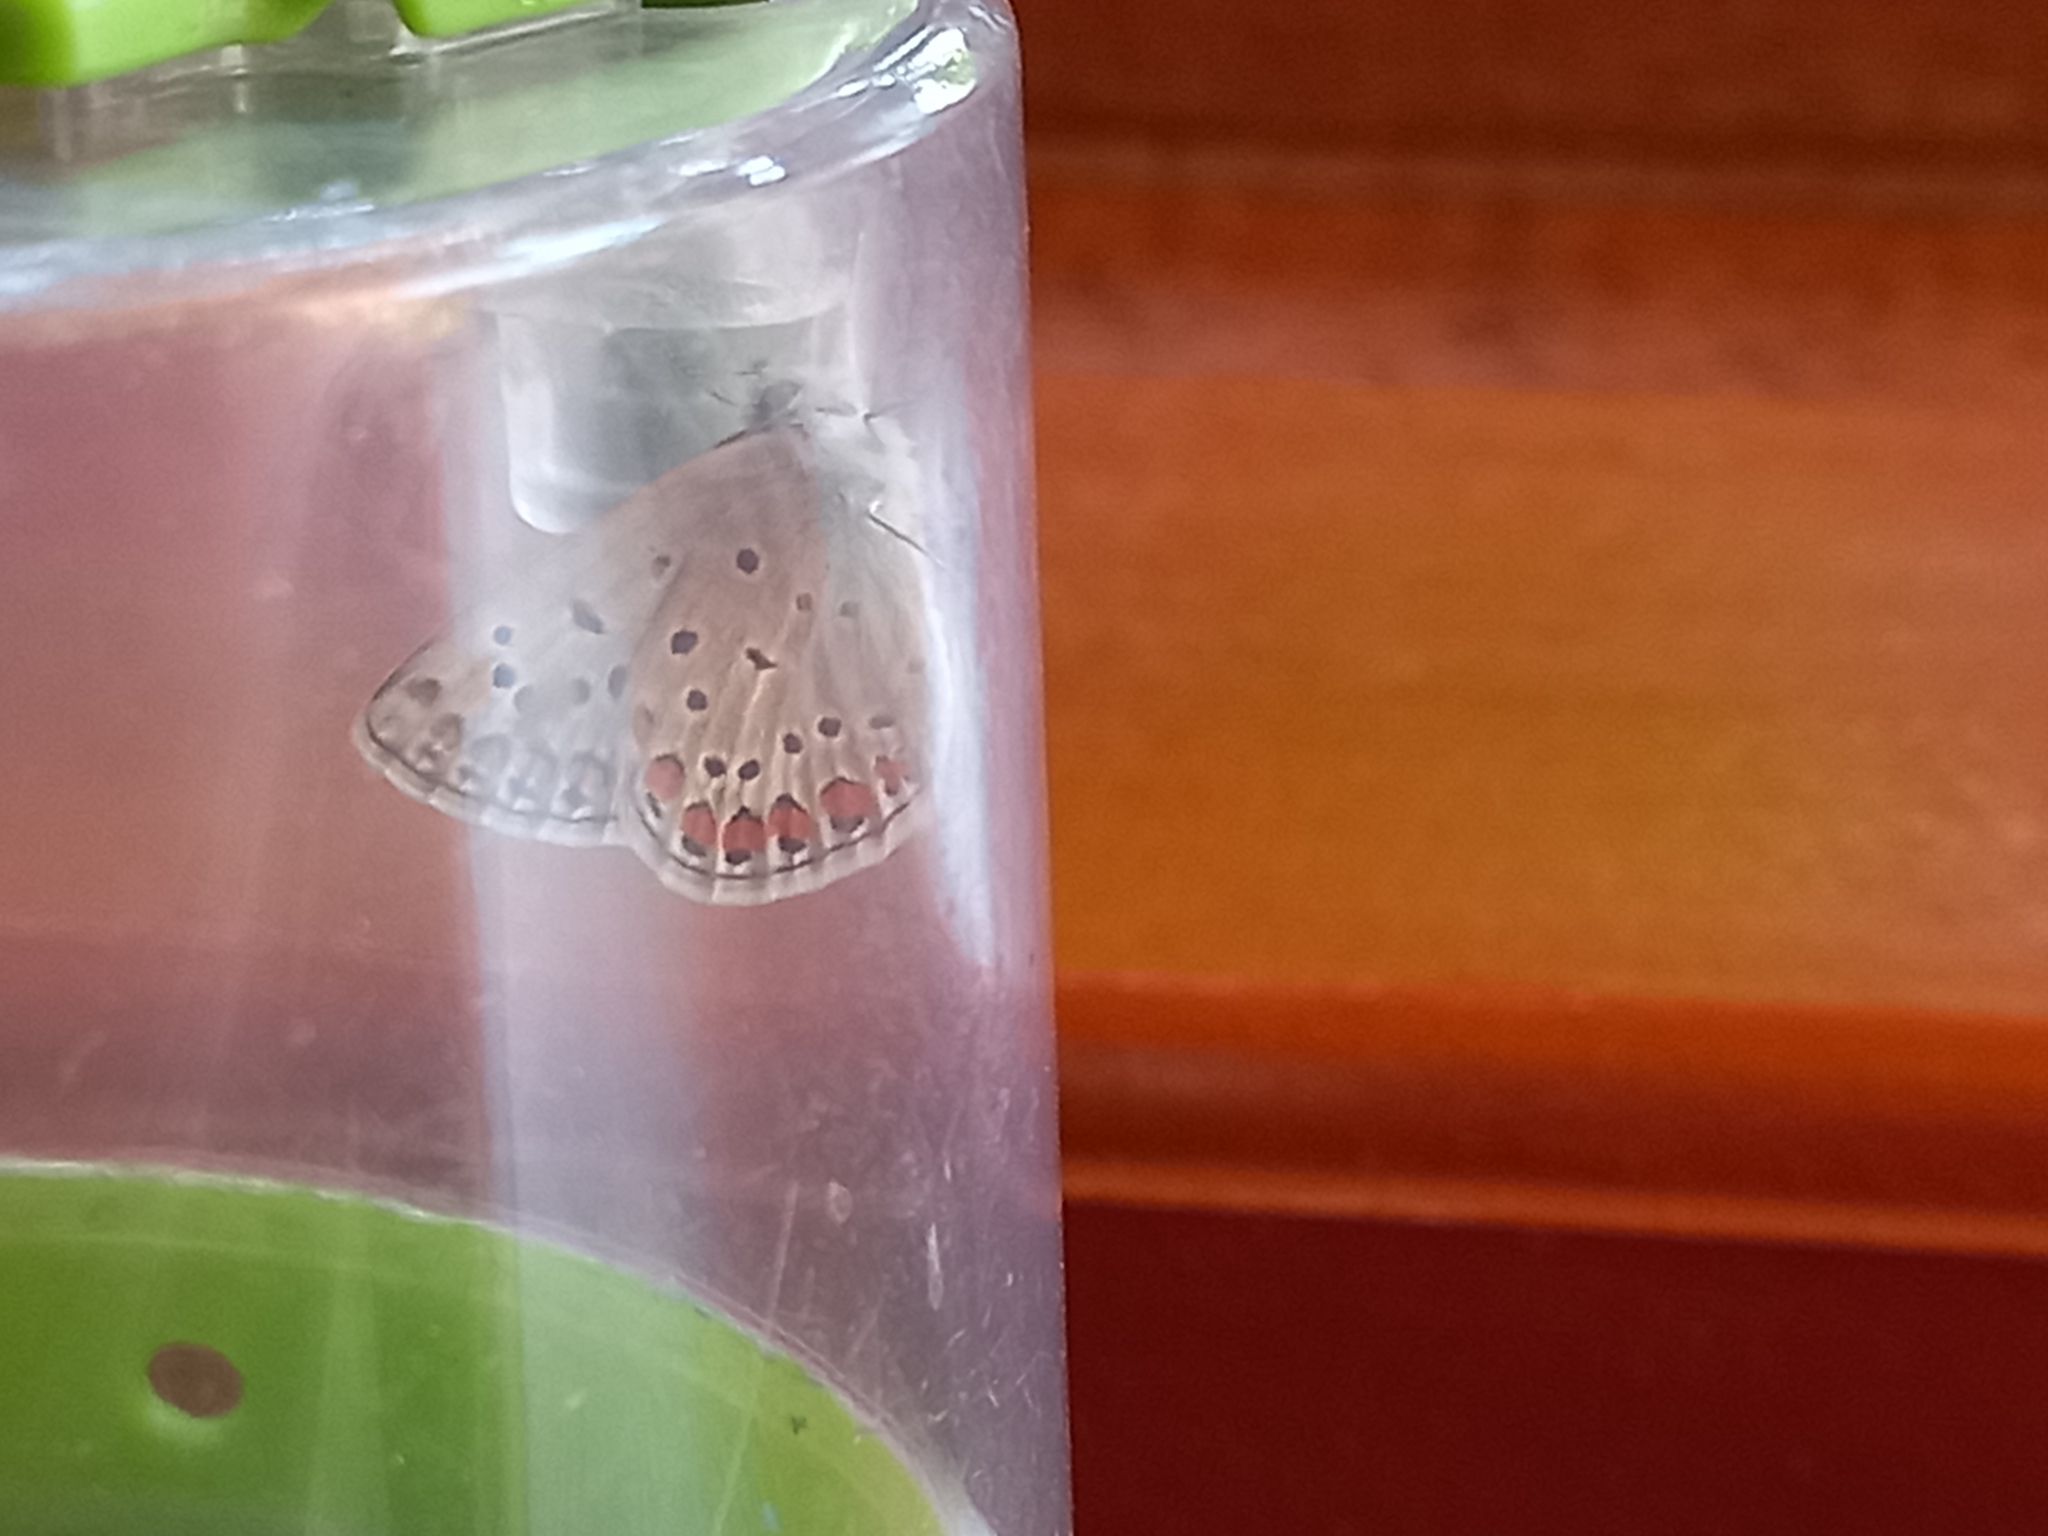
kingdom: Animalia
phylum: Arthropoda
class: Insecta
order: Lepidoptera
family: Lycaenidae
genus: Polyommatus
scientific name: Polyommatus icarus
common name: Common blue
